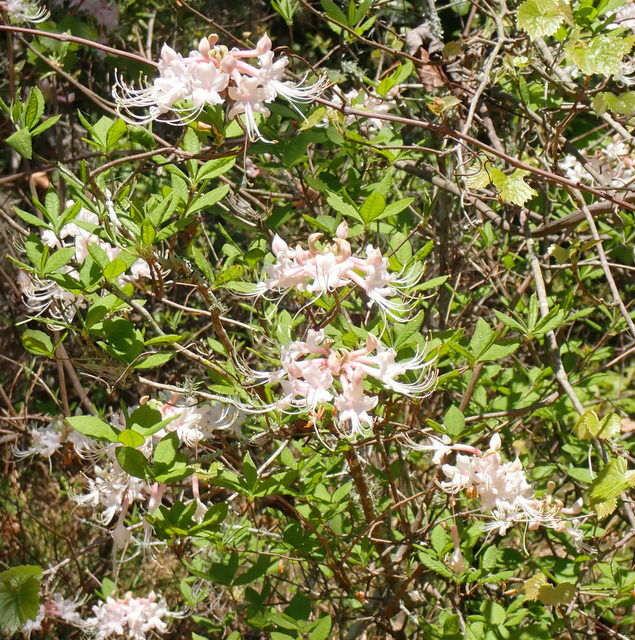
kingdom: Plantae
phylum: Tracheophyta
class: Magnoliopsida
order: Ericales
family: Ericaceae
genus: Rhododendron
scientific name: Rhododendron canescens
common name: Mountain azalea
